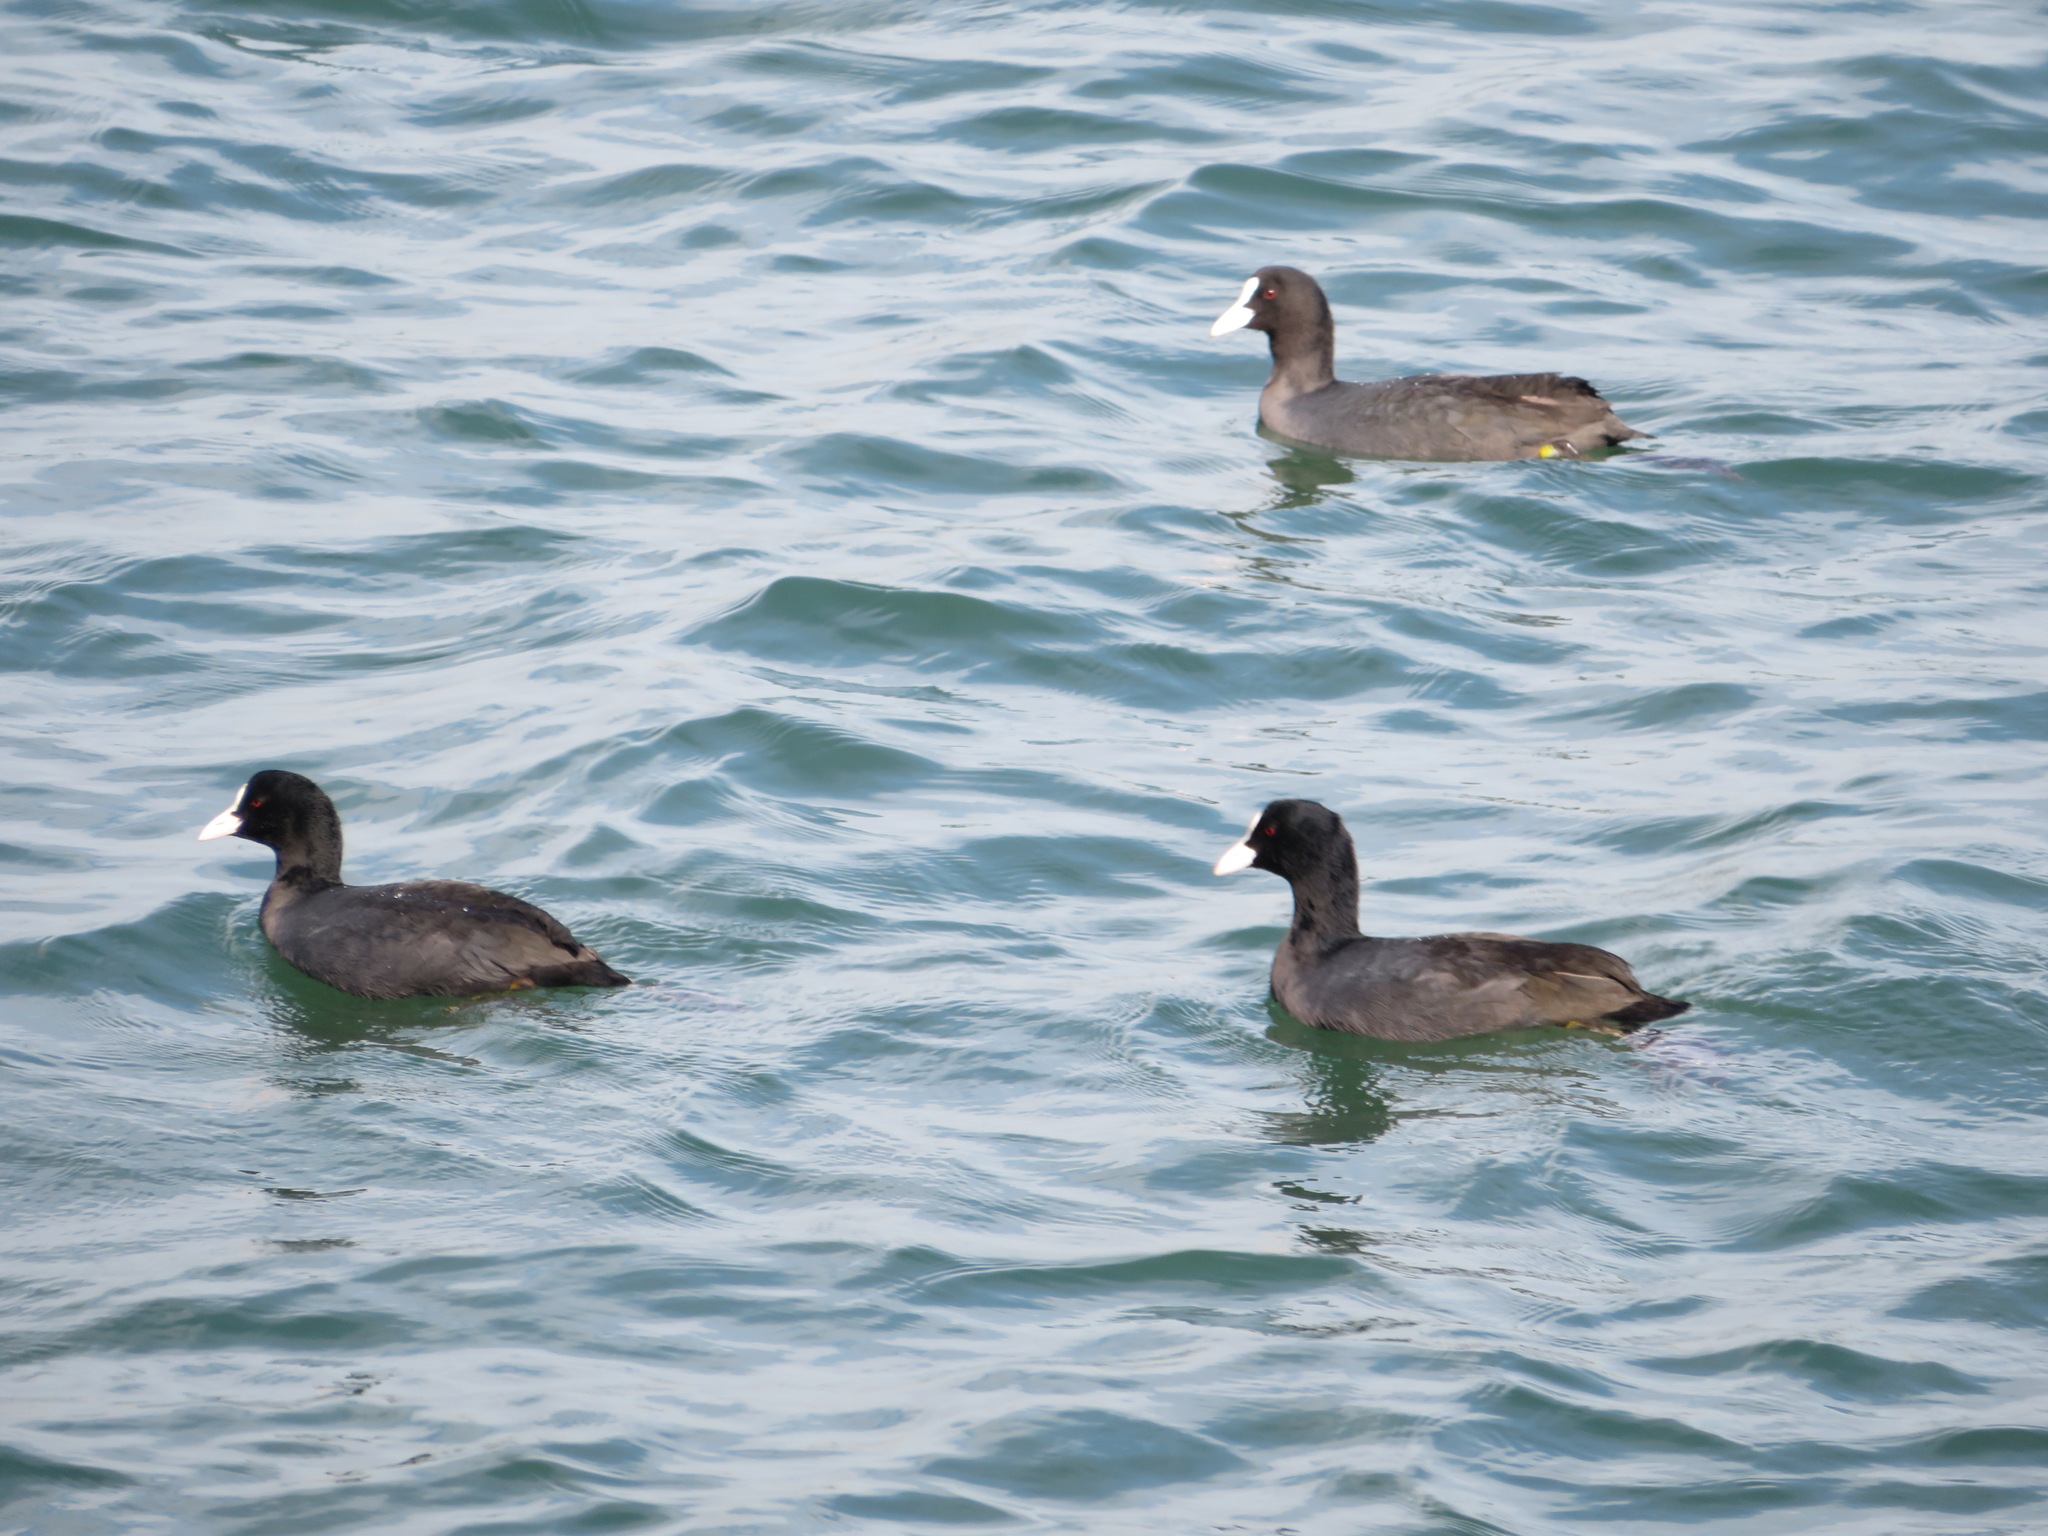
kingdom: Animalia
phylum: Chordata
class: Aves
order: Gruiformes
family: Rallidae
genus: Fulica
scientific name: Fulica atra
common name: Eurasian coot
